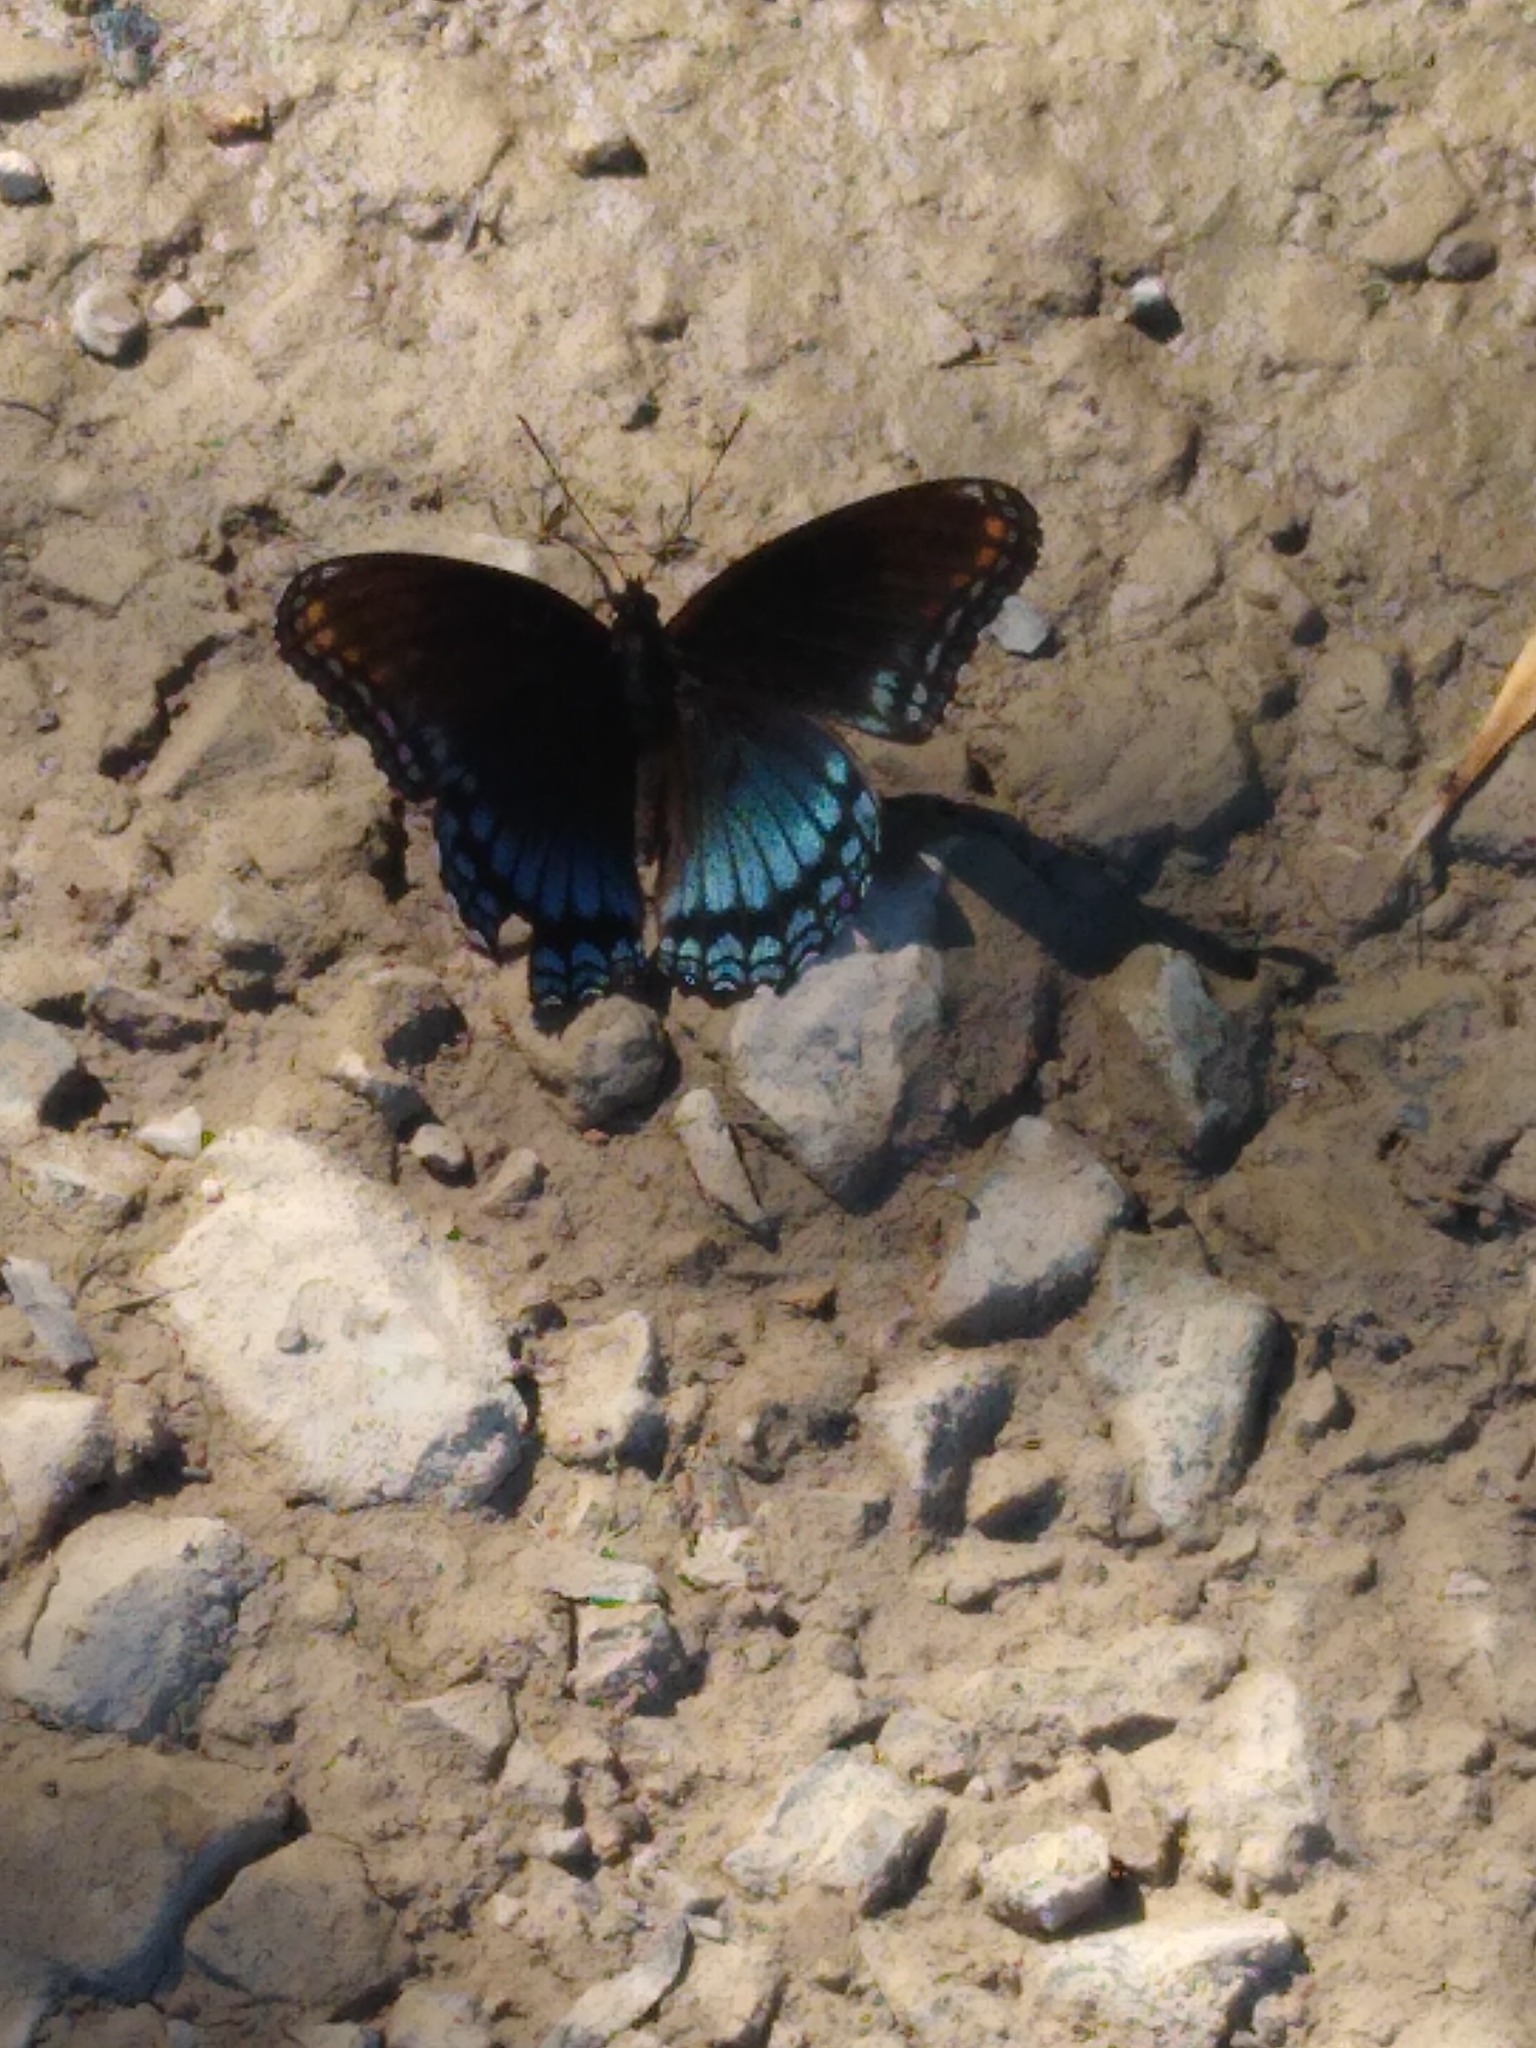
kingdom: Animalia
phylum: Arthropoda
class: Insecta
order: Lepidoptera
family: Nymphalidae
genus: Limenitis
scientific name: Limenitis astyanax
